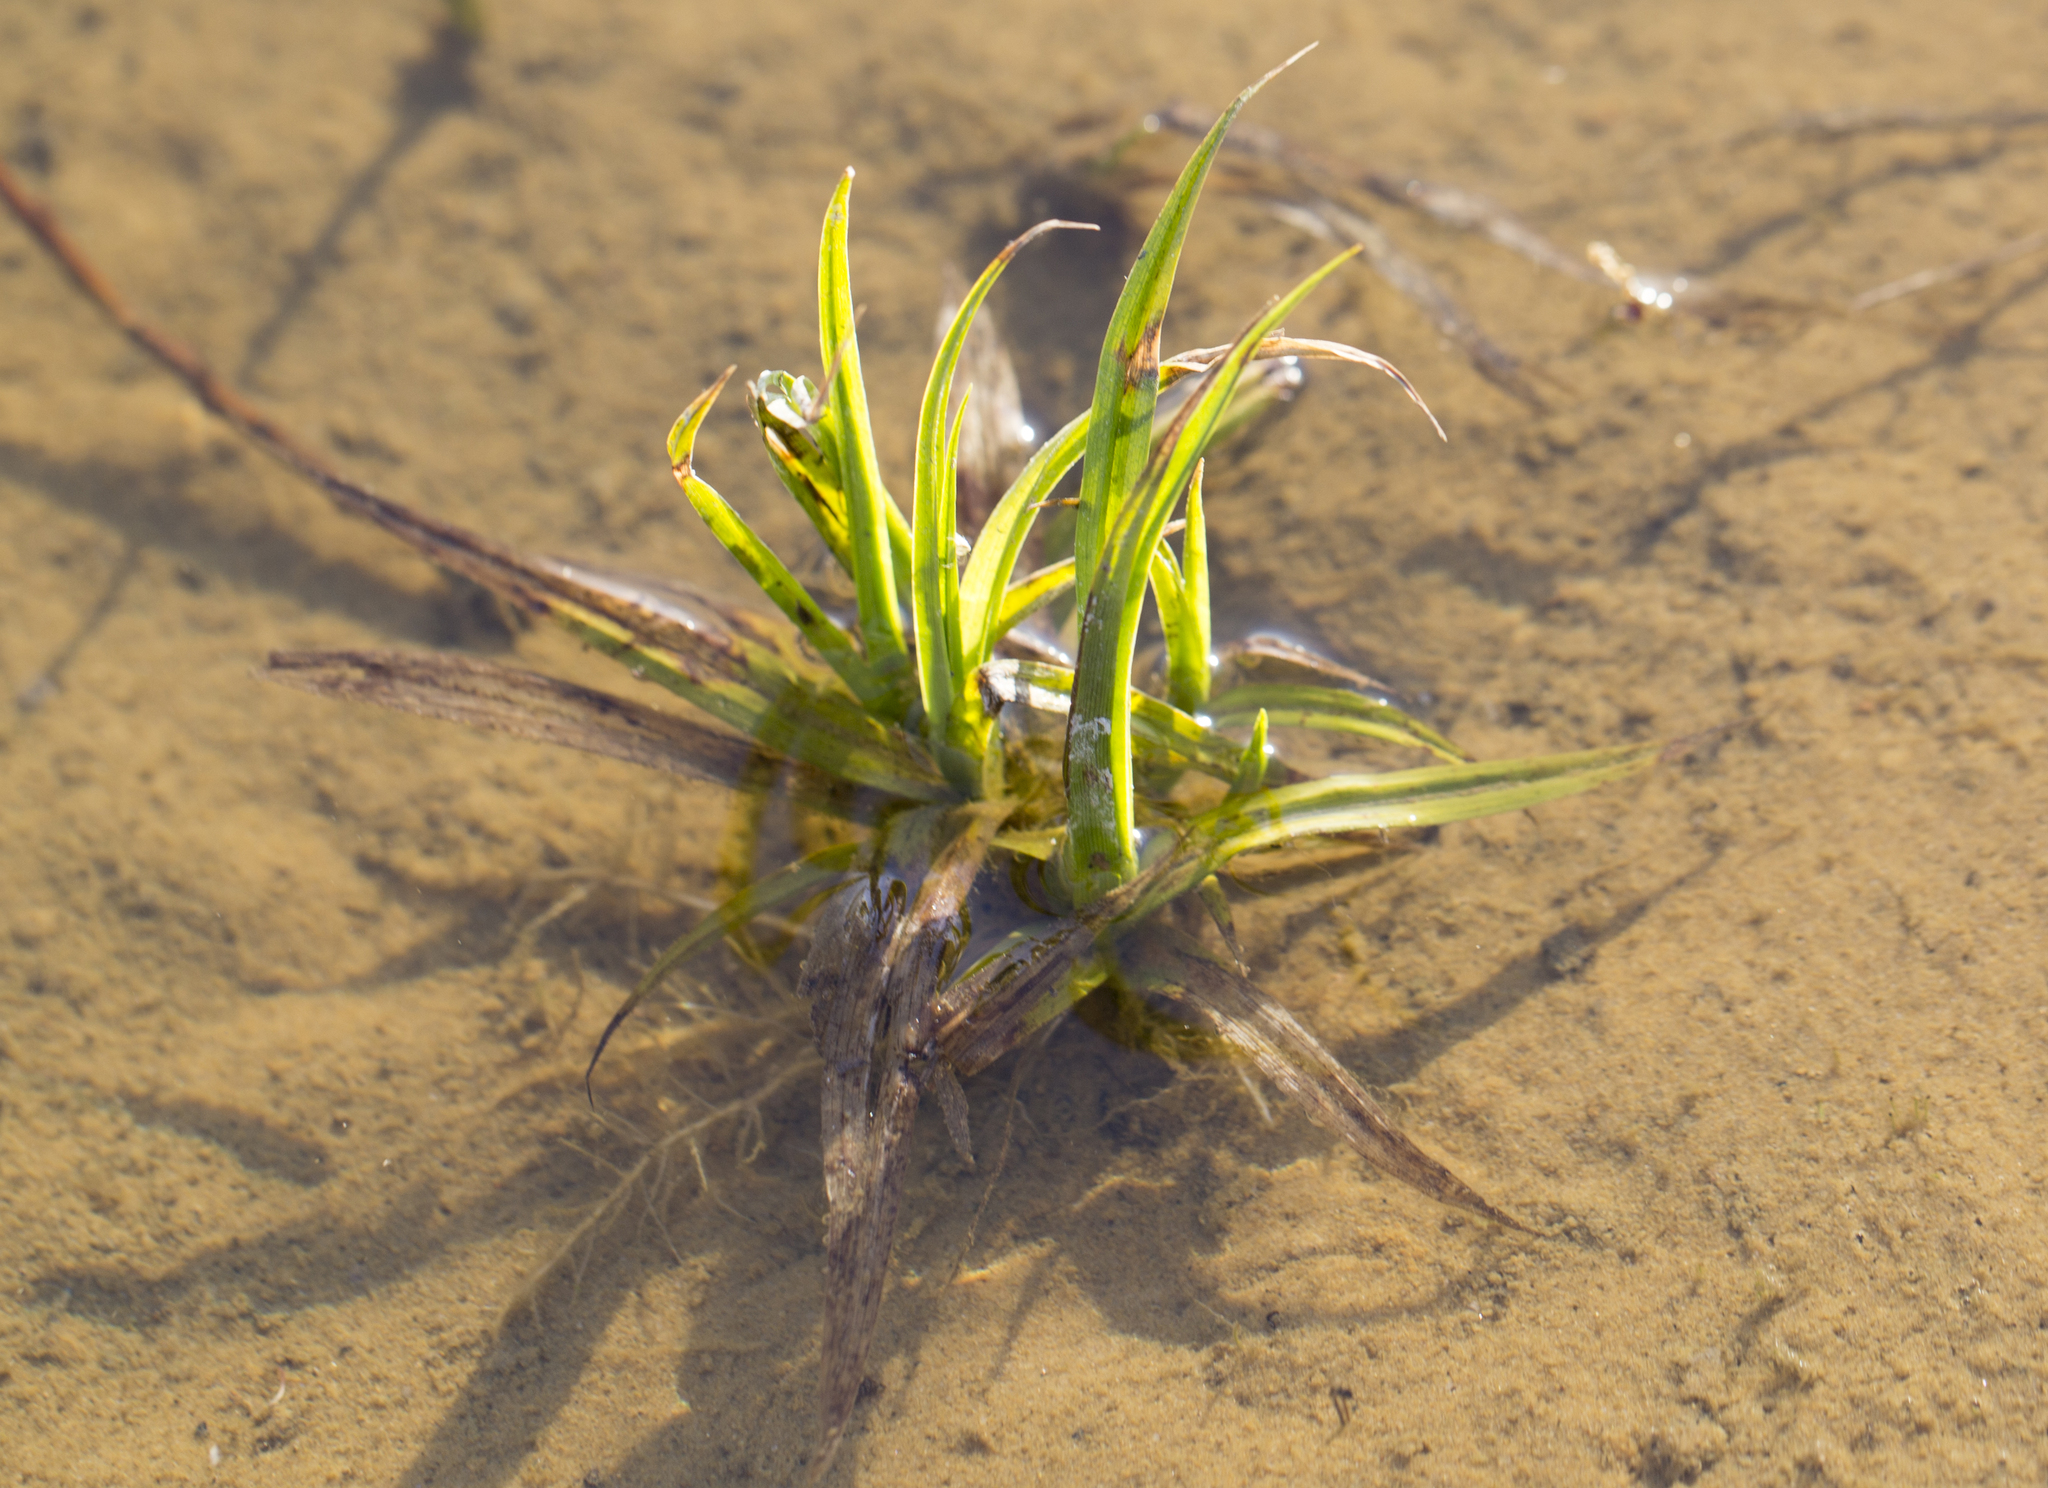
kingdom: Plantae
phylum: Tracheophyta
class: Liliopsida
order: Poales
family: Cyperaceae
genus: Scirpus
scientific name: Scirpus sylvaticus
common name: Wood club-rush
